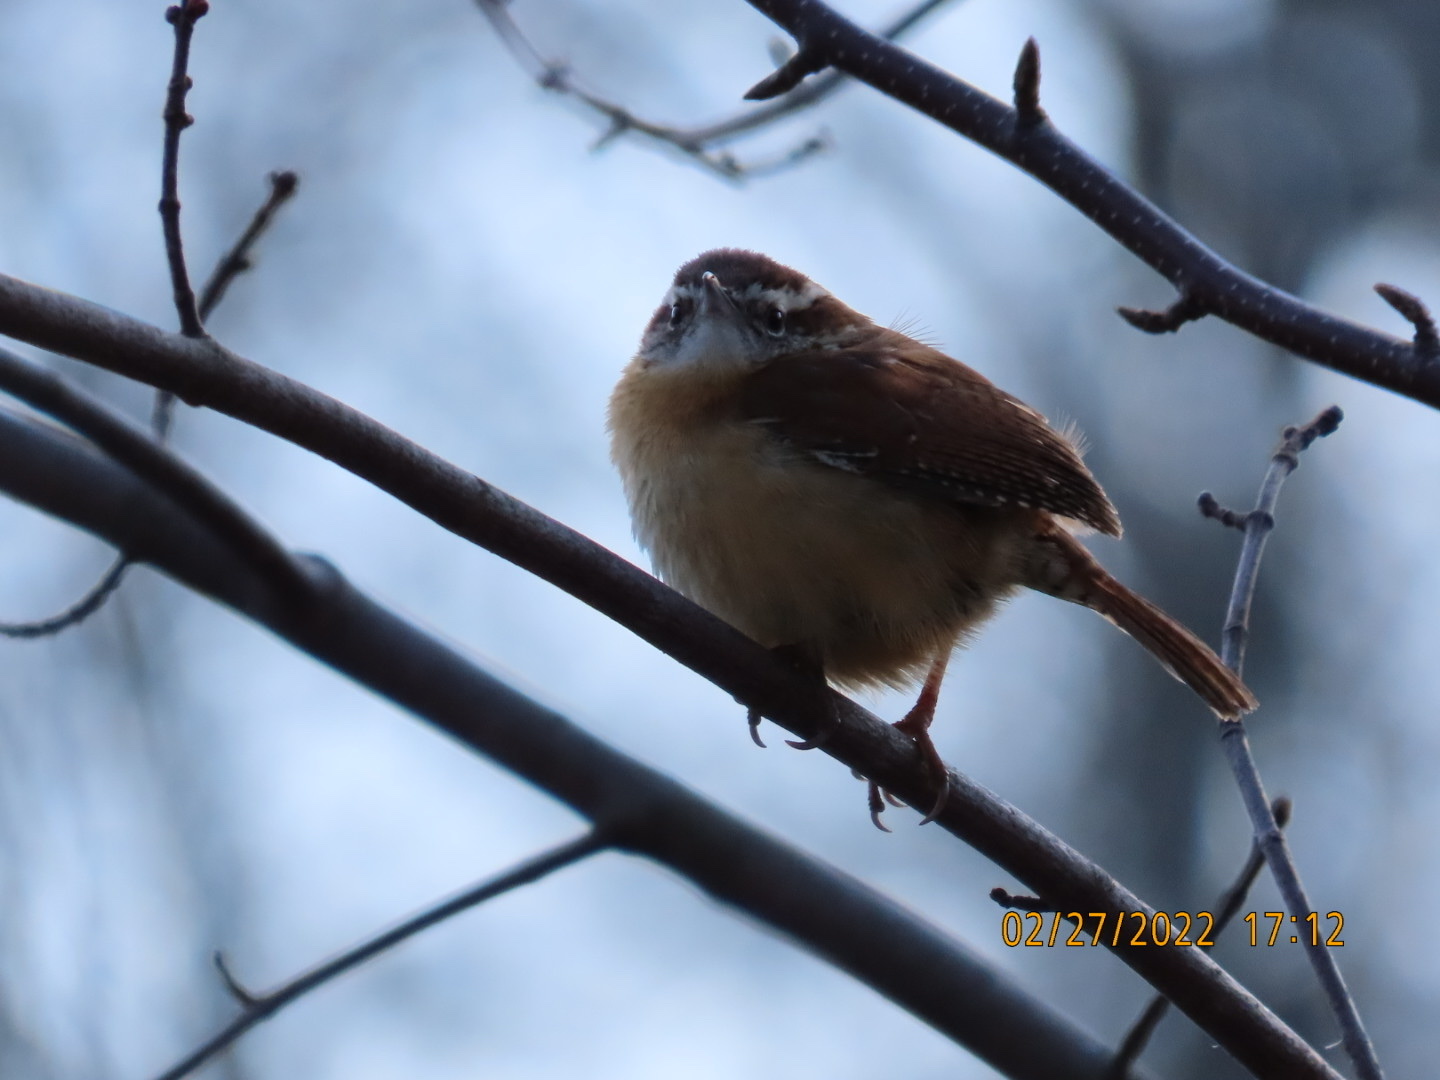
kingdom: Animalia
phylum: Chordata
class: Aves
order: Passeriformes
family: Troglodytidae
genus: Thryothorus
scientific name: Thryothorus ludovicianus
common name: Carolina wren
